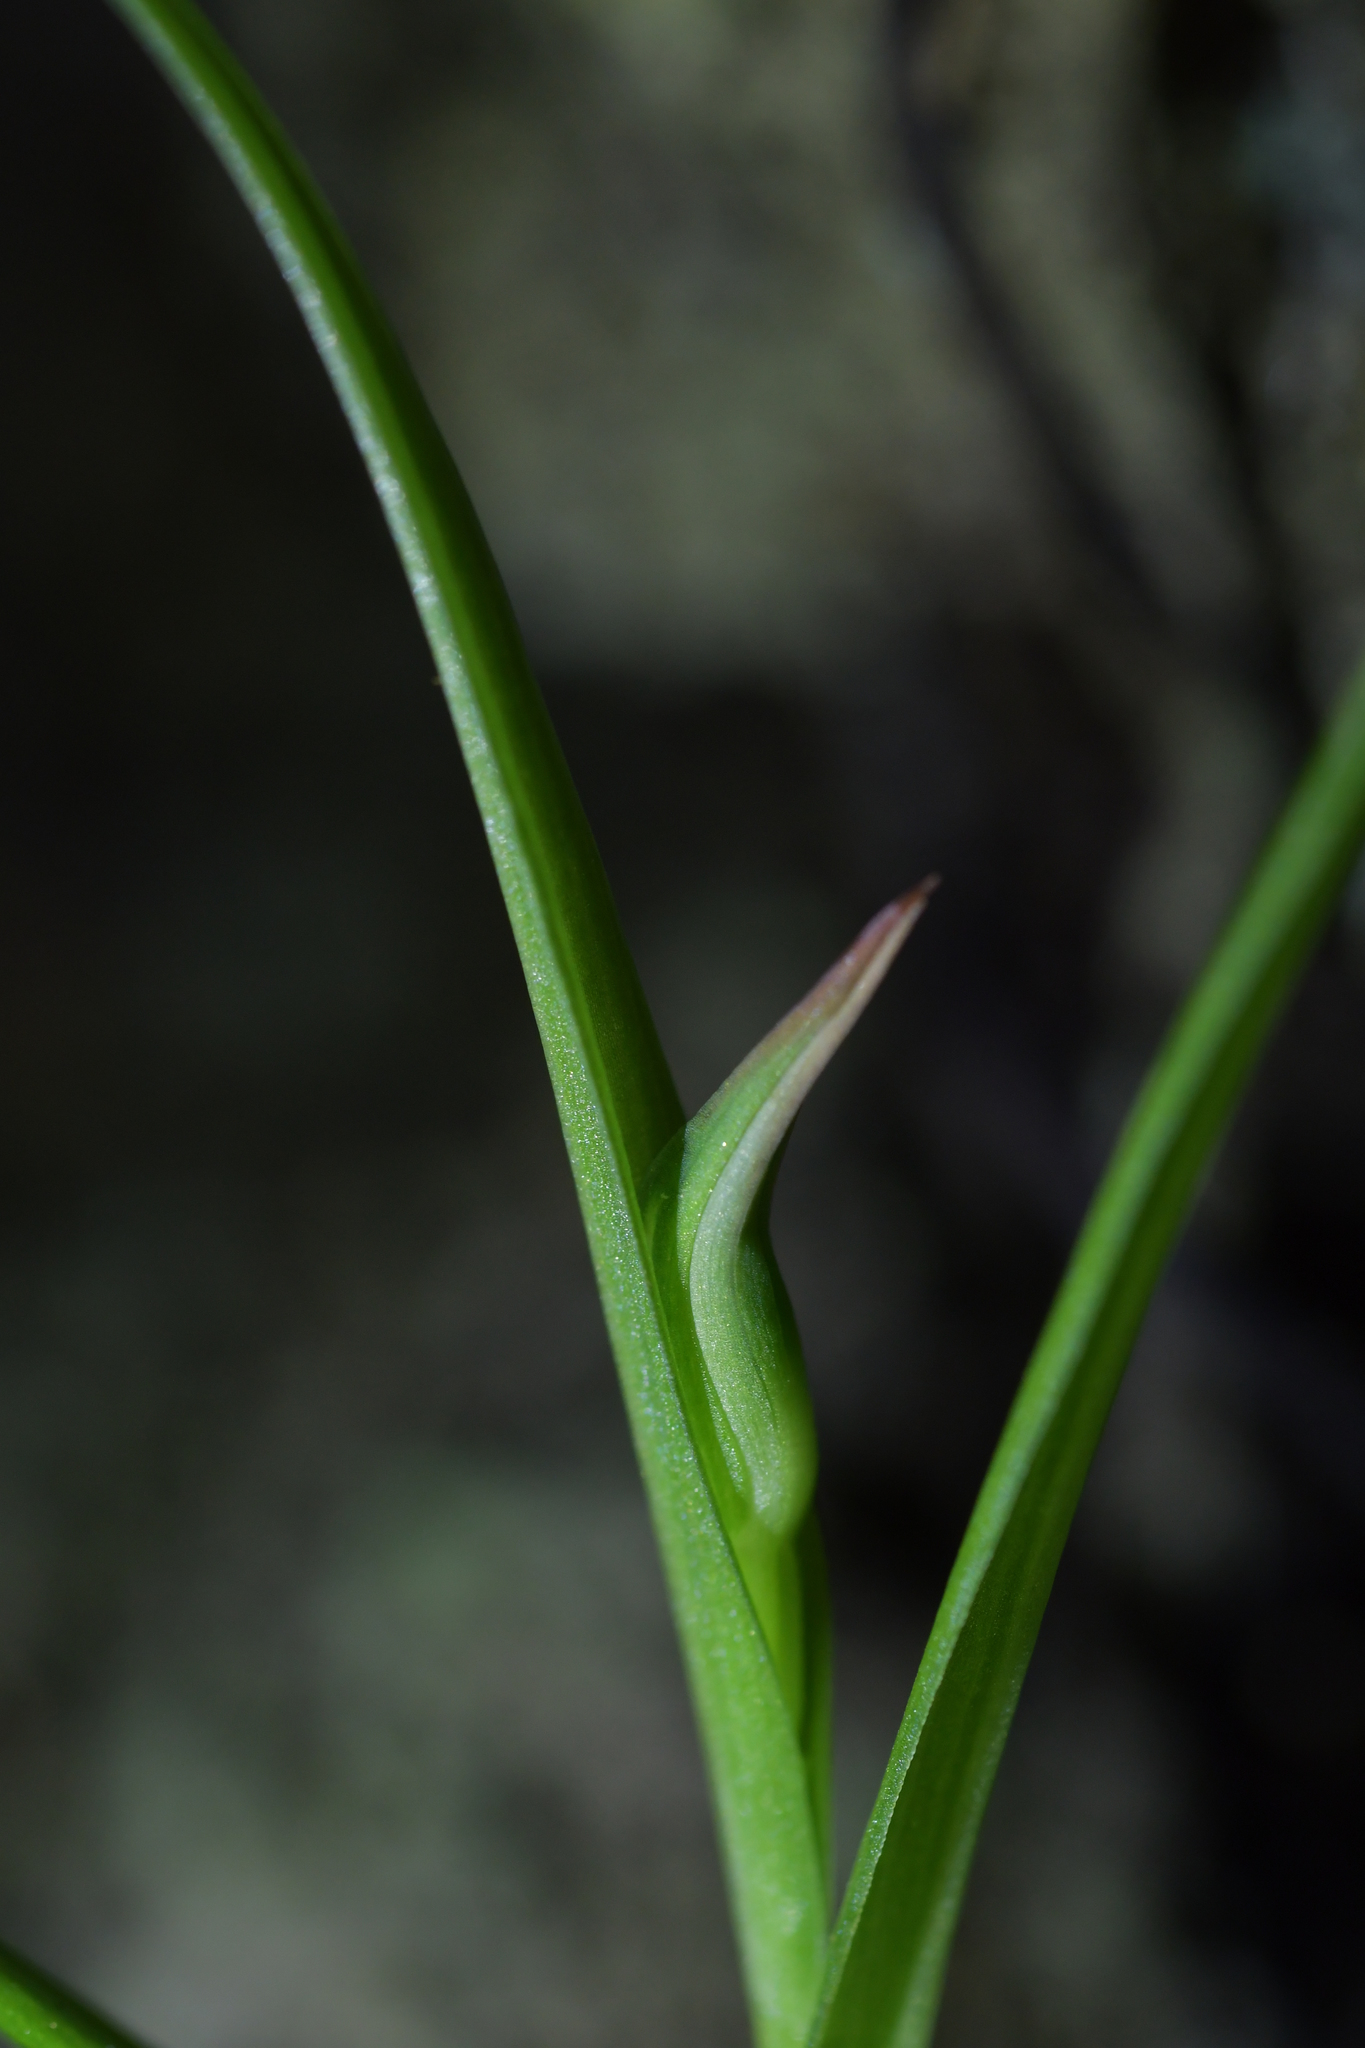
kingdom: Plantae
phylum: Tracheophyta
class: Liliopsida
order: Asparagales
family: Orchidaceae
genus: Pterostylis
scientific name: Pterostylis graminea
